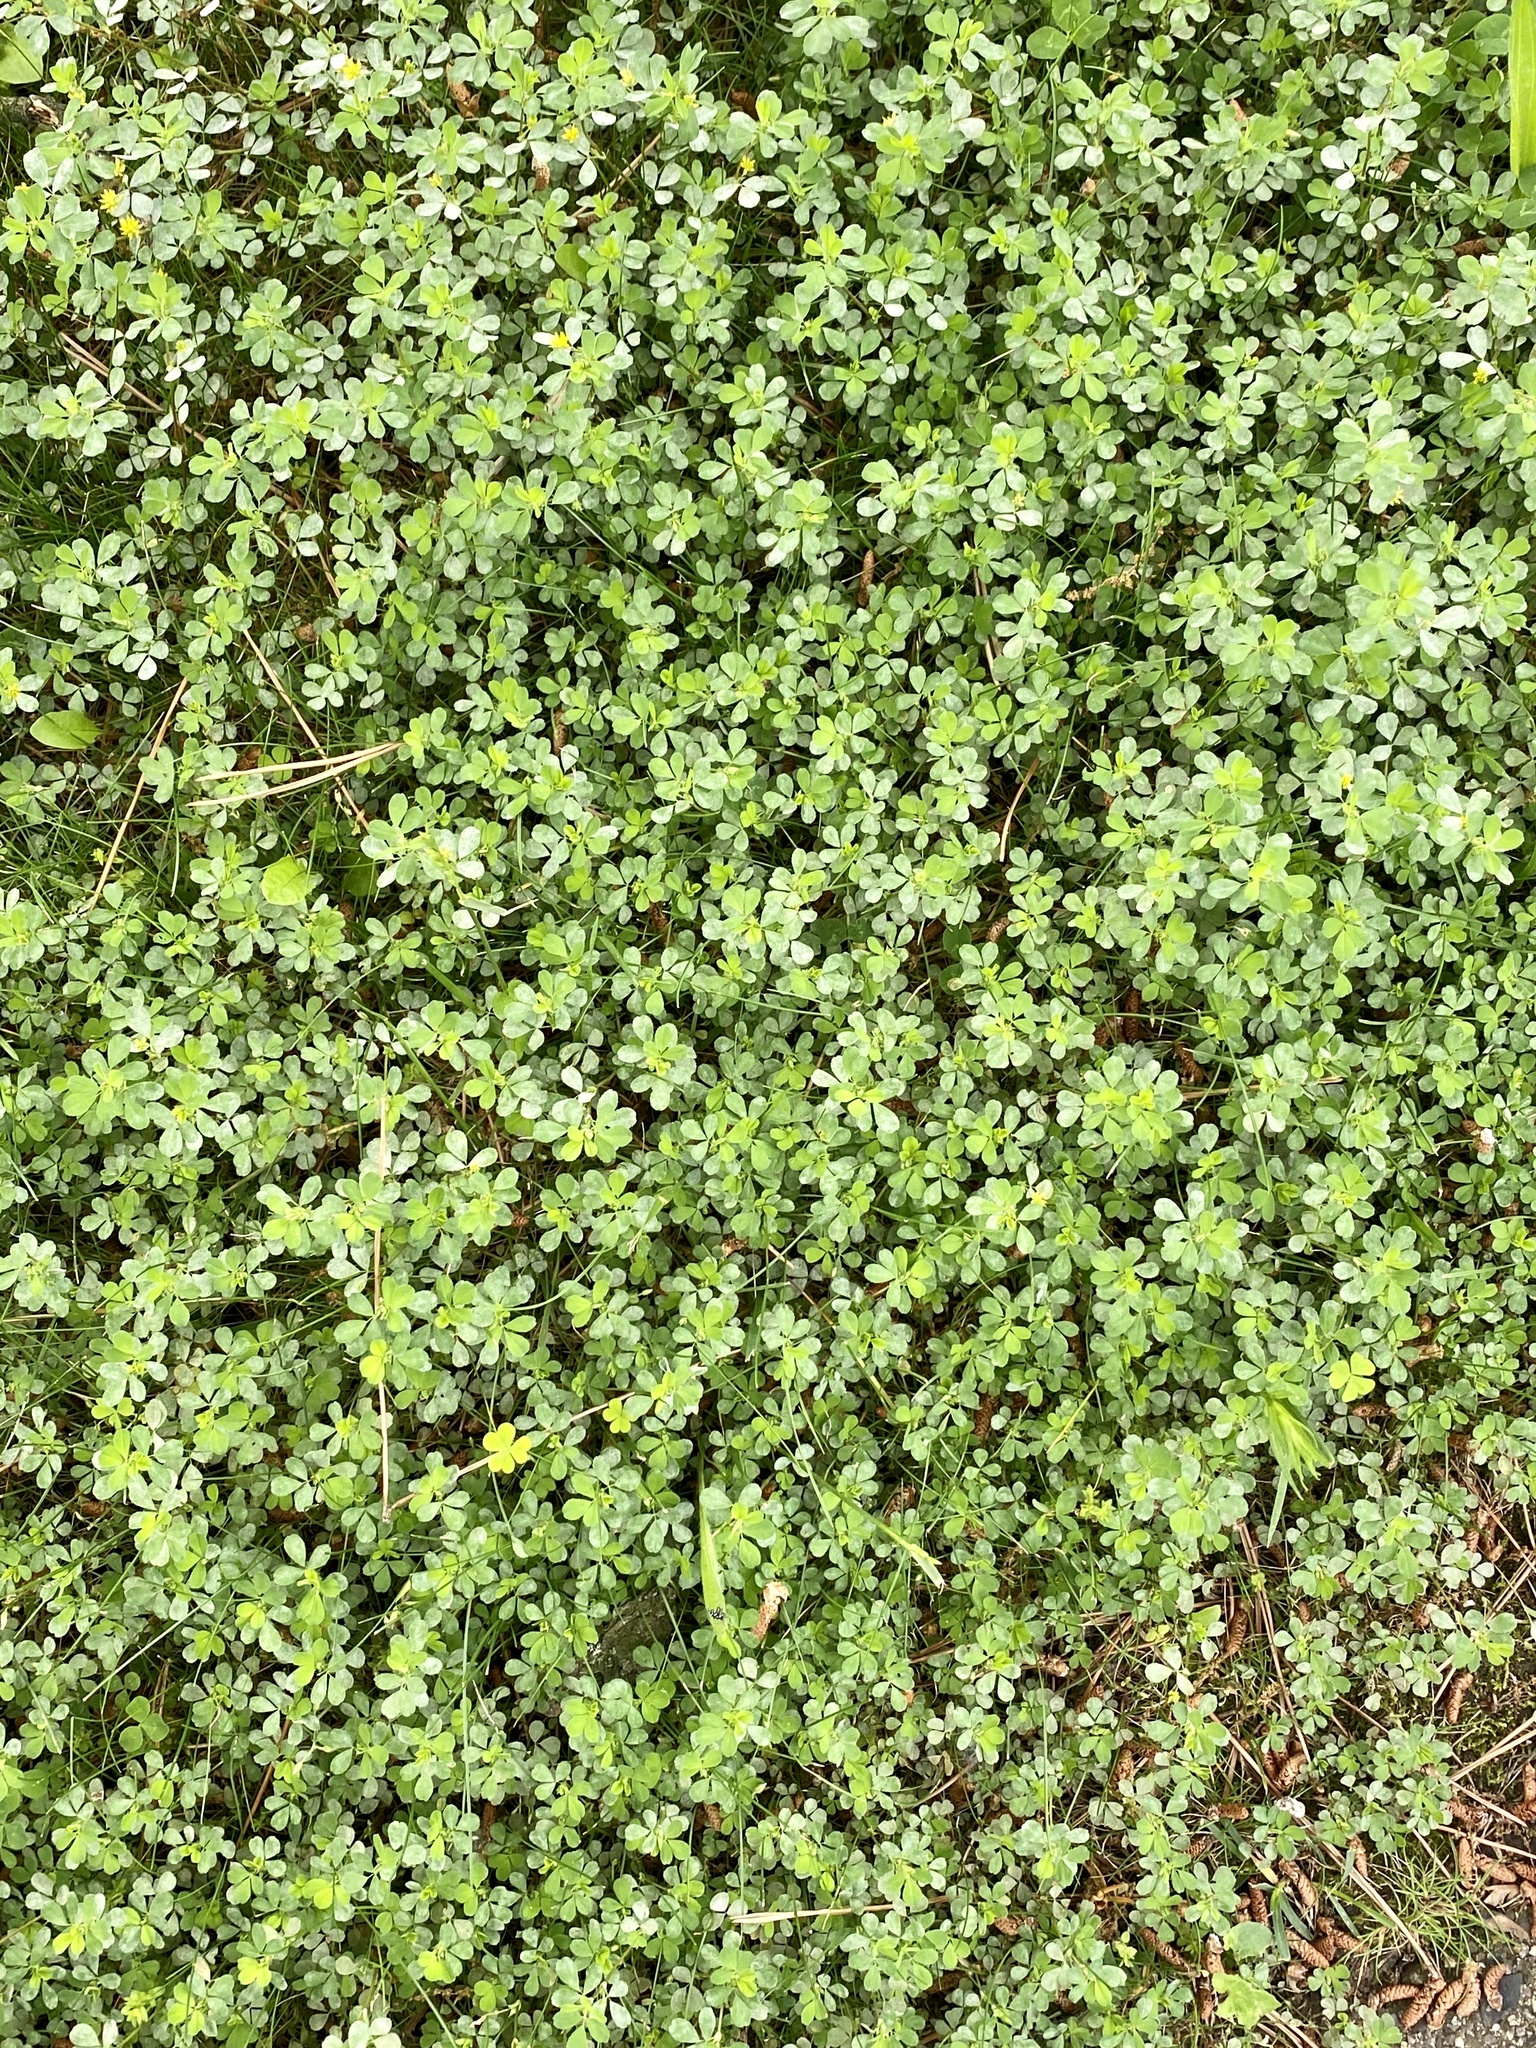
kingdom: Plantae
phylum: Tracheophyta
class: Magnoliopsida
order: Fabales
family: Fabaceae
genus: Trifolium
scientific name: Trifolium dubium
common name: Suckling clover
